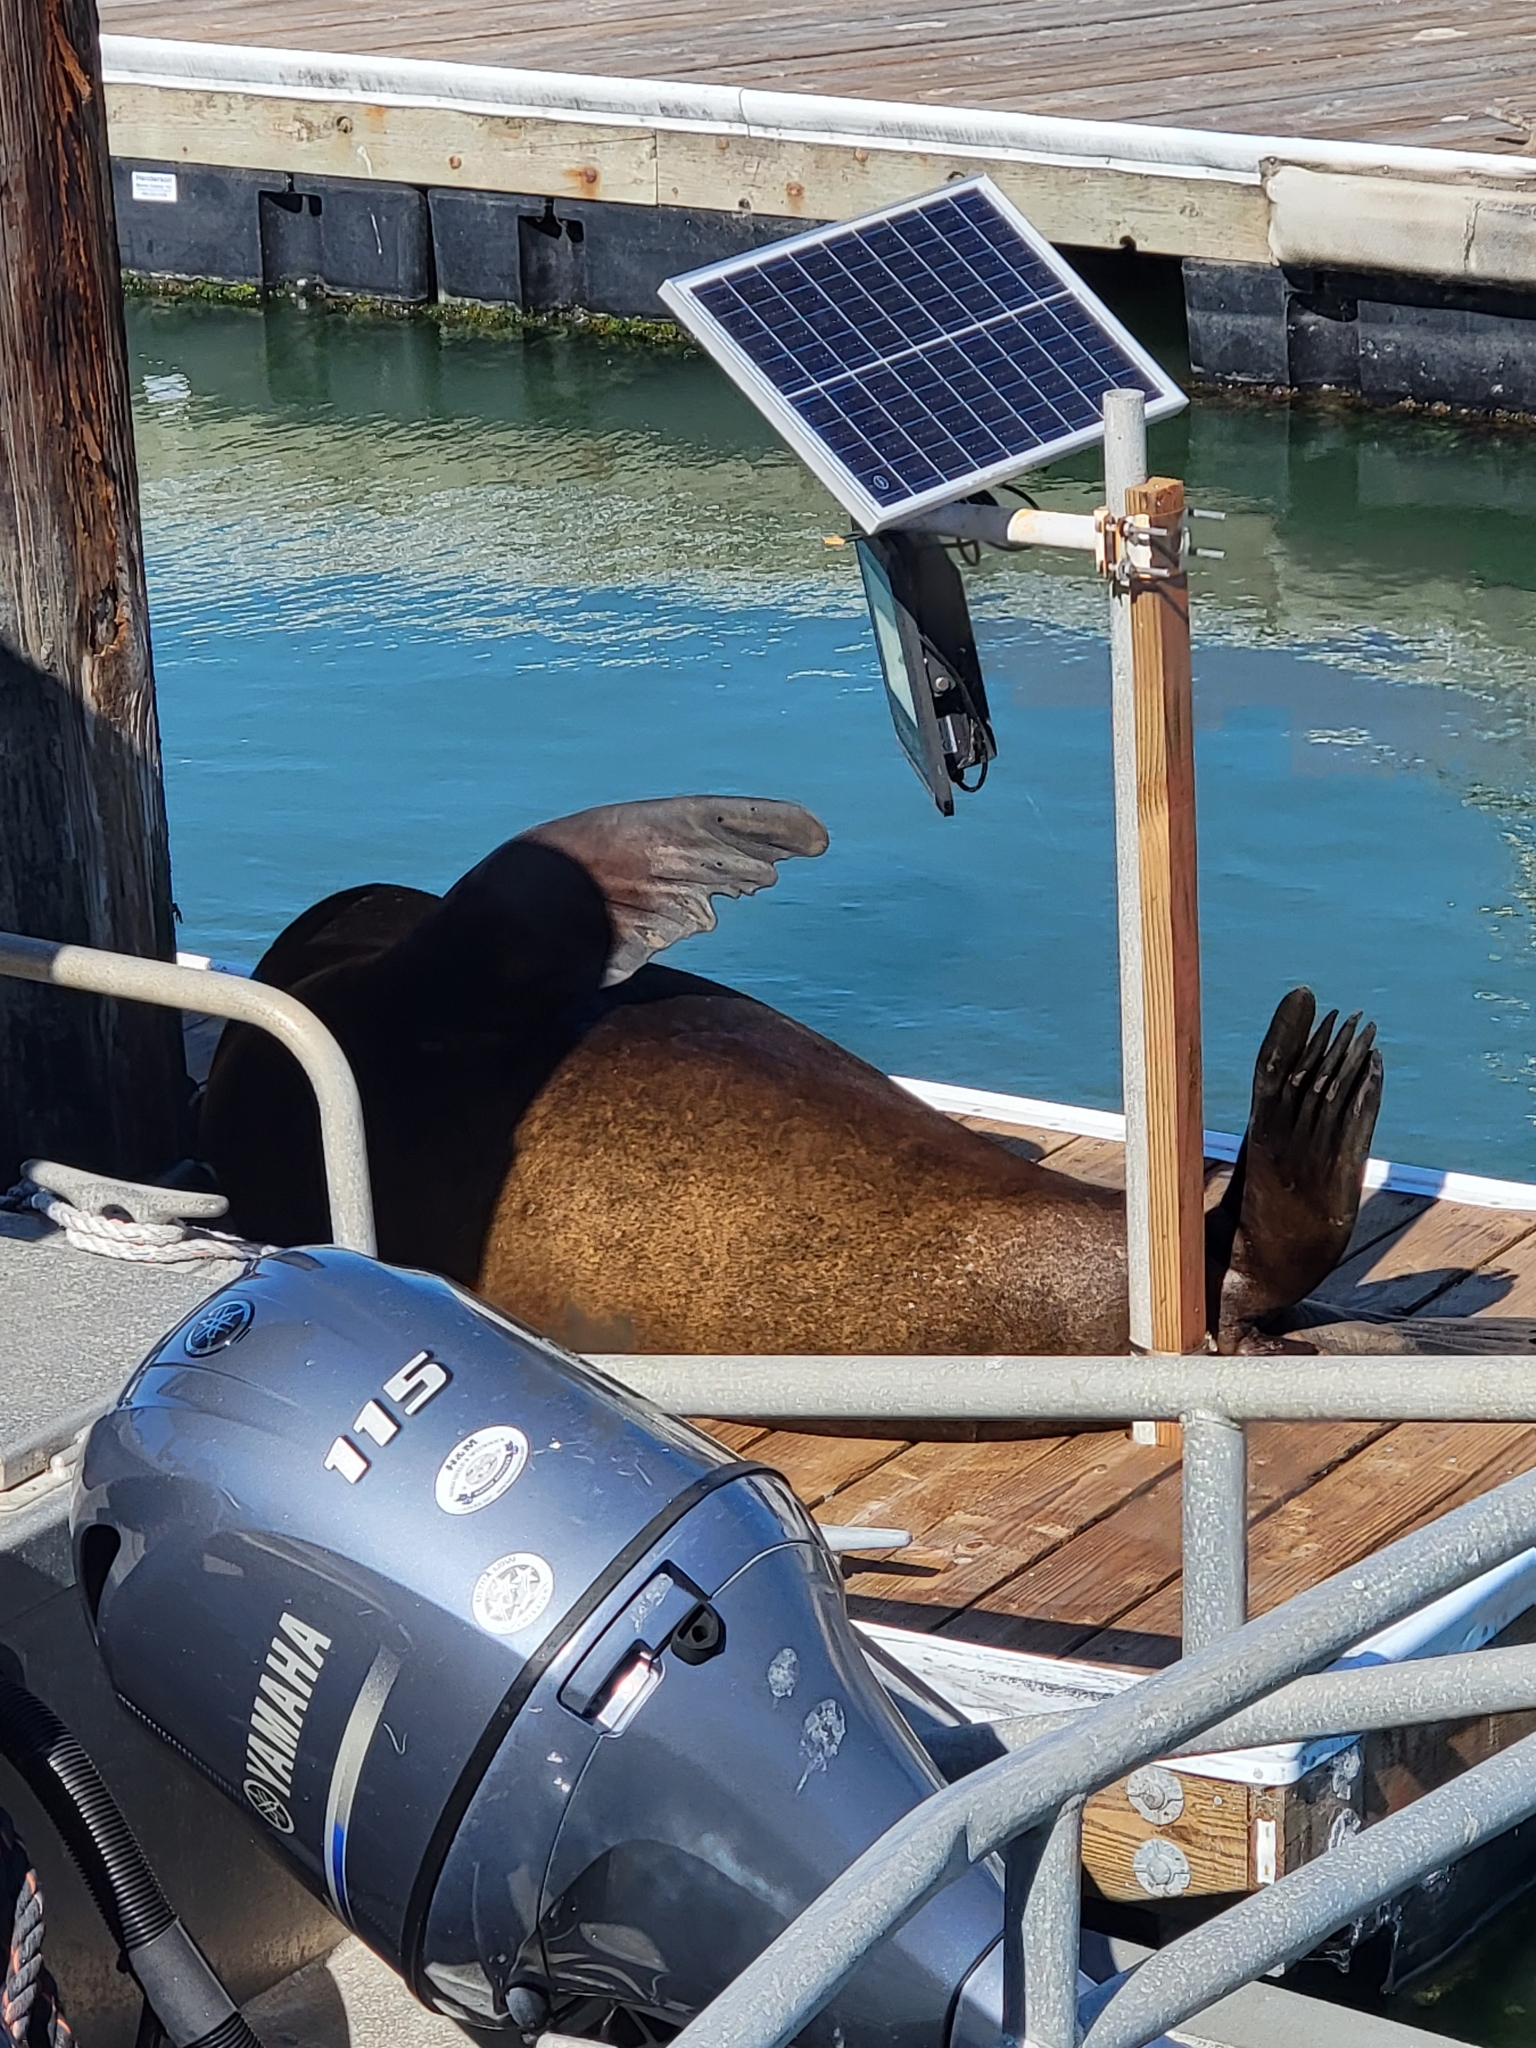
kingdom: Animalia
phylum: Chordata
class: Mammalia
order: Carnivora
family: Otariidae
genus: Zalophus
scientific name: Zalophus californianus
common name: California sea lion
